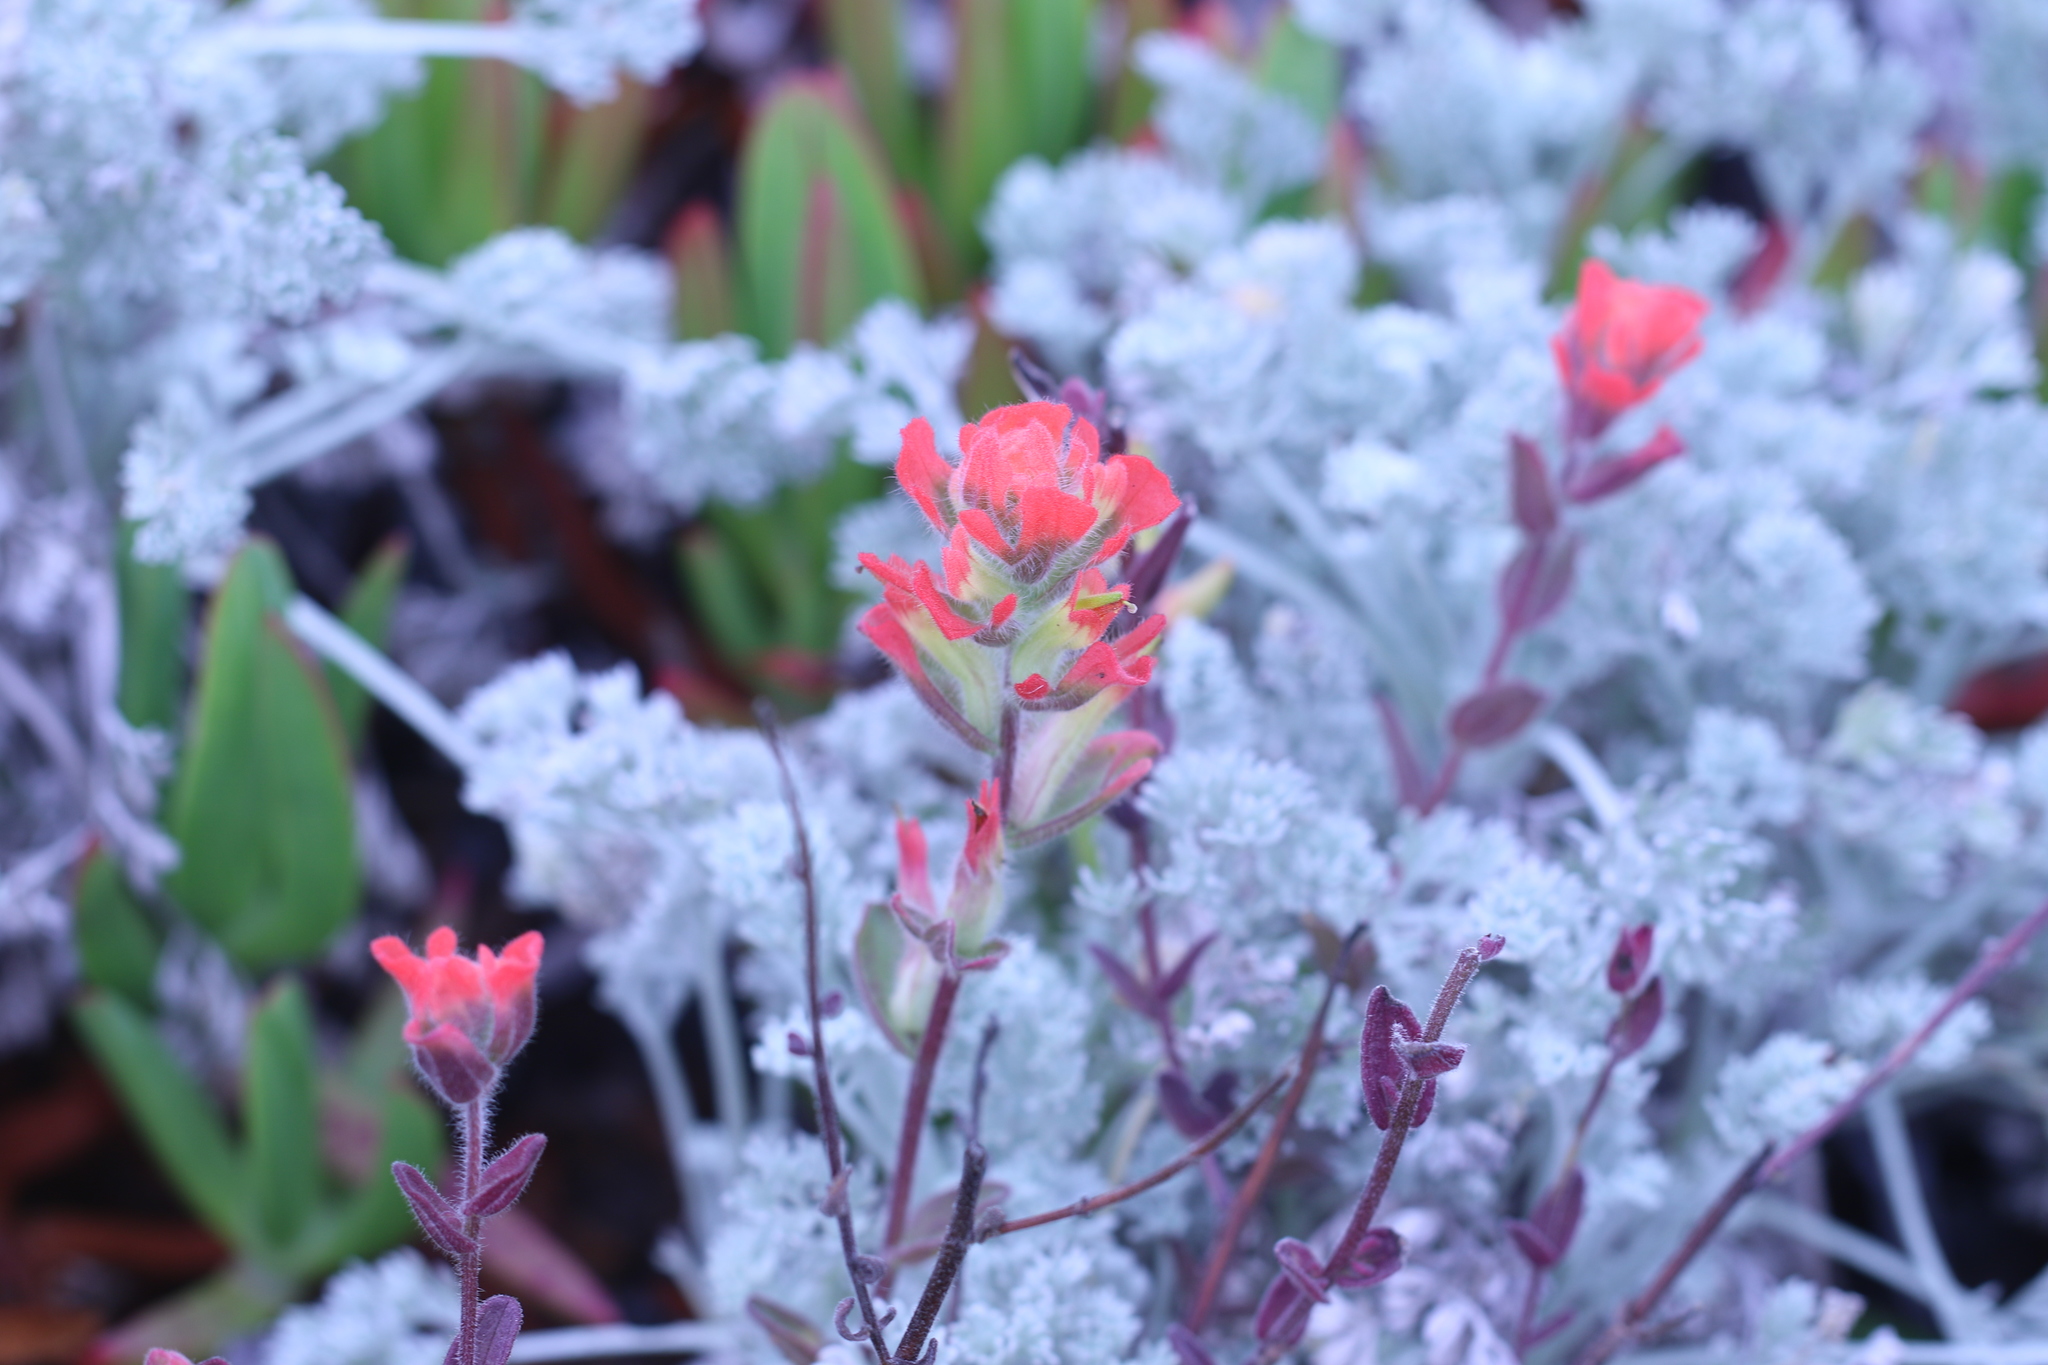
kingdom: Plantae
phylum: Tracheophyta
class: Magnoliopsida
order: Lamiales
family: Orobanchaceae
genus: Castilleja
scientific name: Castilleja latifolia
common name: Monterey indian paintbrush
